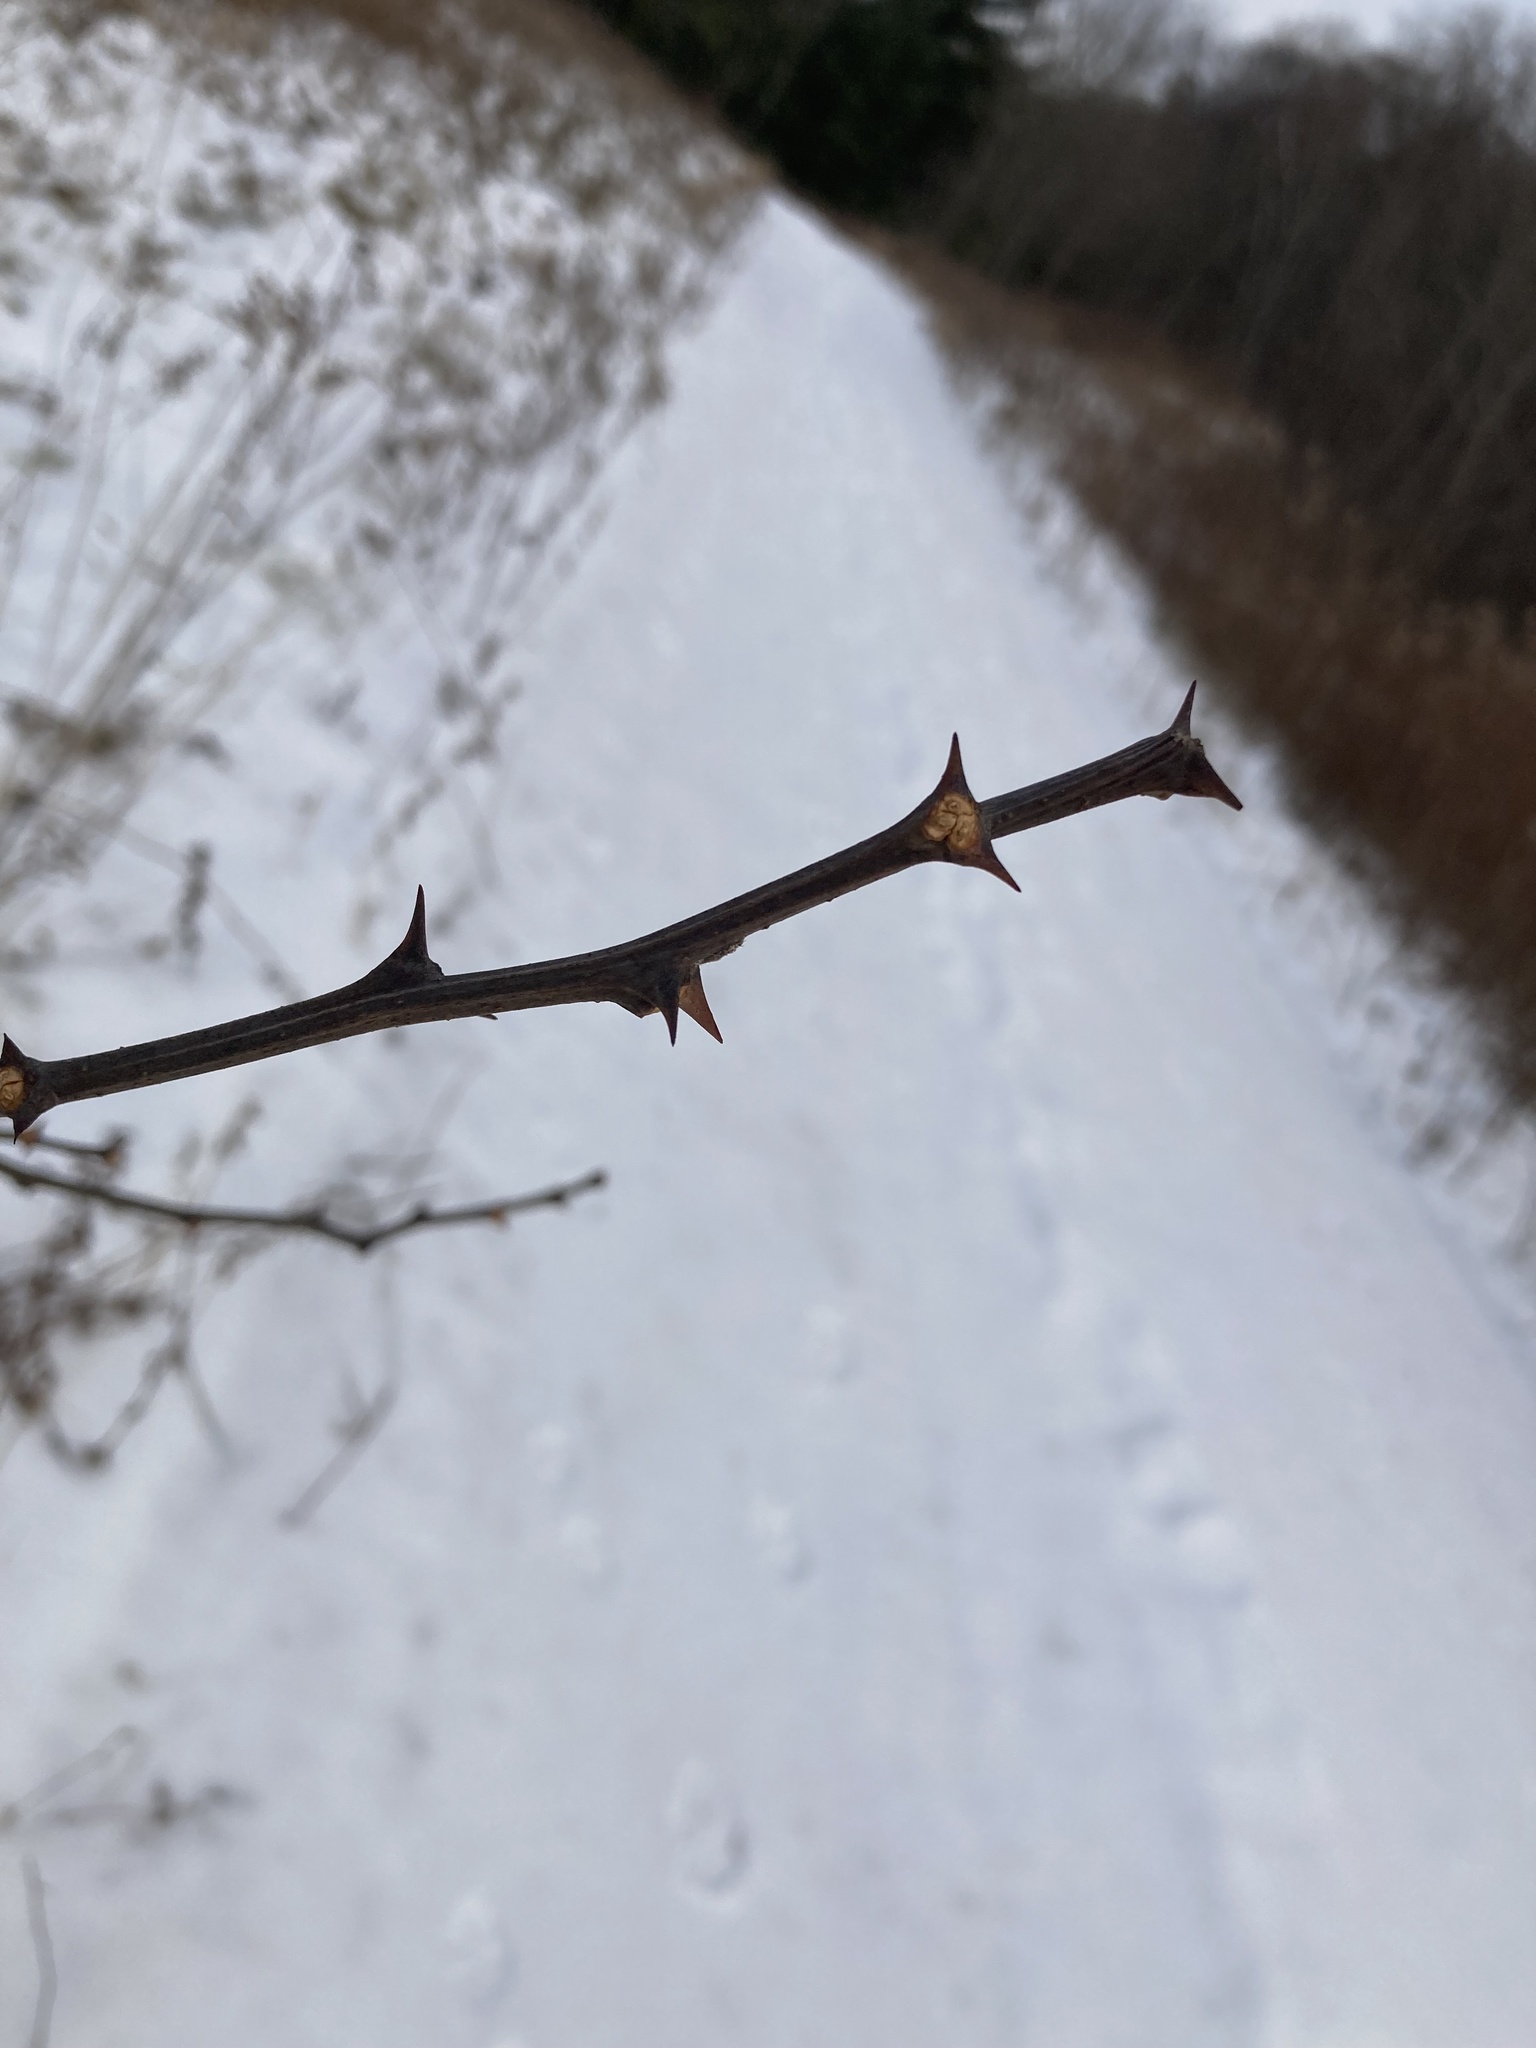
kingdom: Plantae
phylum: Tracheophyta
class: Magnoliopsida
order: Fabales
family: Fabaceae
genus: Robinia
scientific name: Robinia pseudoacacia
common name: Black locust
